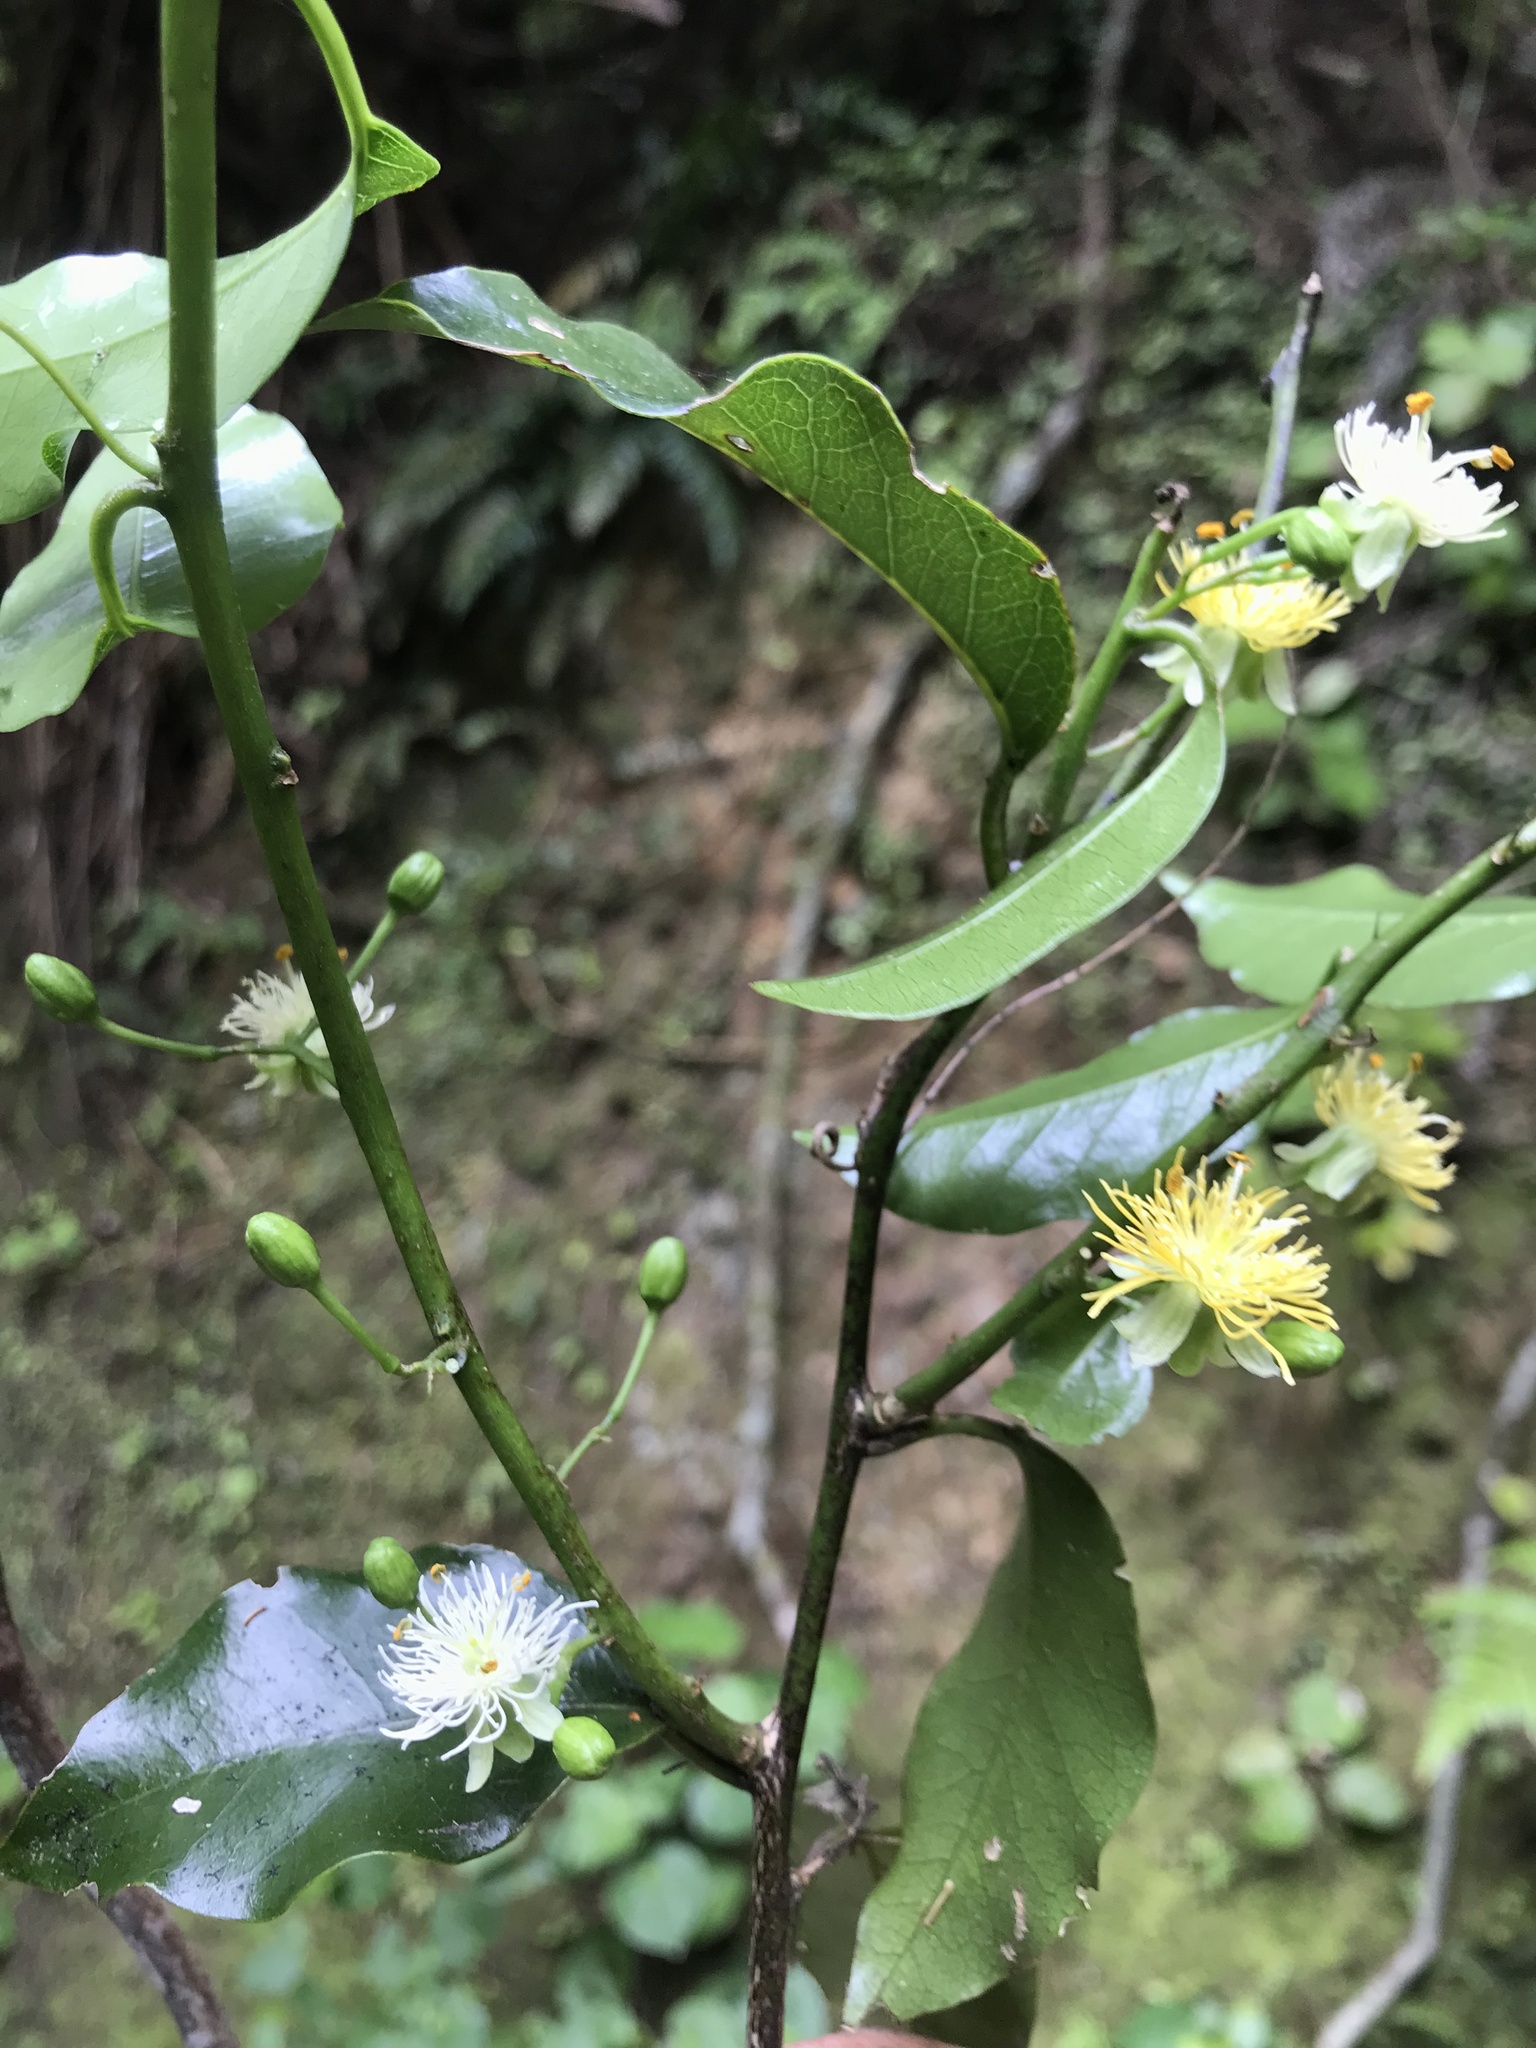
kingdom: Plantae
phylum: Tracheophyta
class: Magnoliopsida
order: Malpighiales
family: Passifloraceae
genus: Passiflora
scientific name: Passiflora tetrandra
